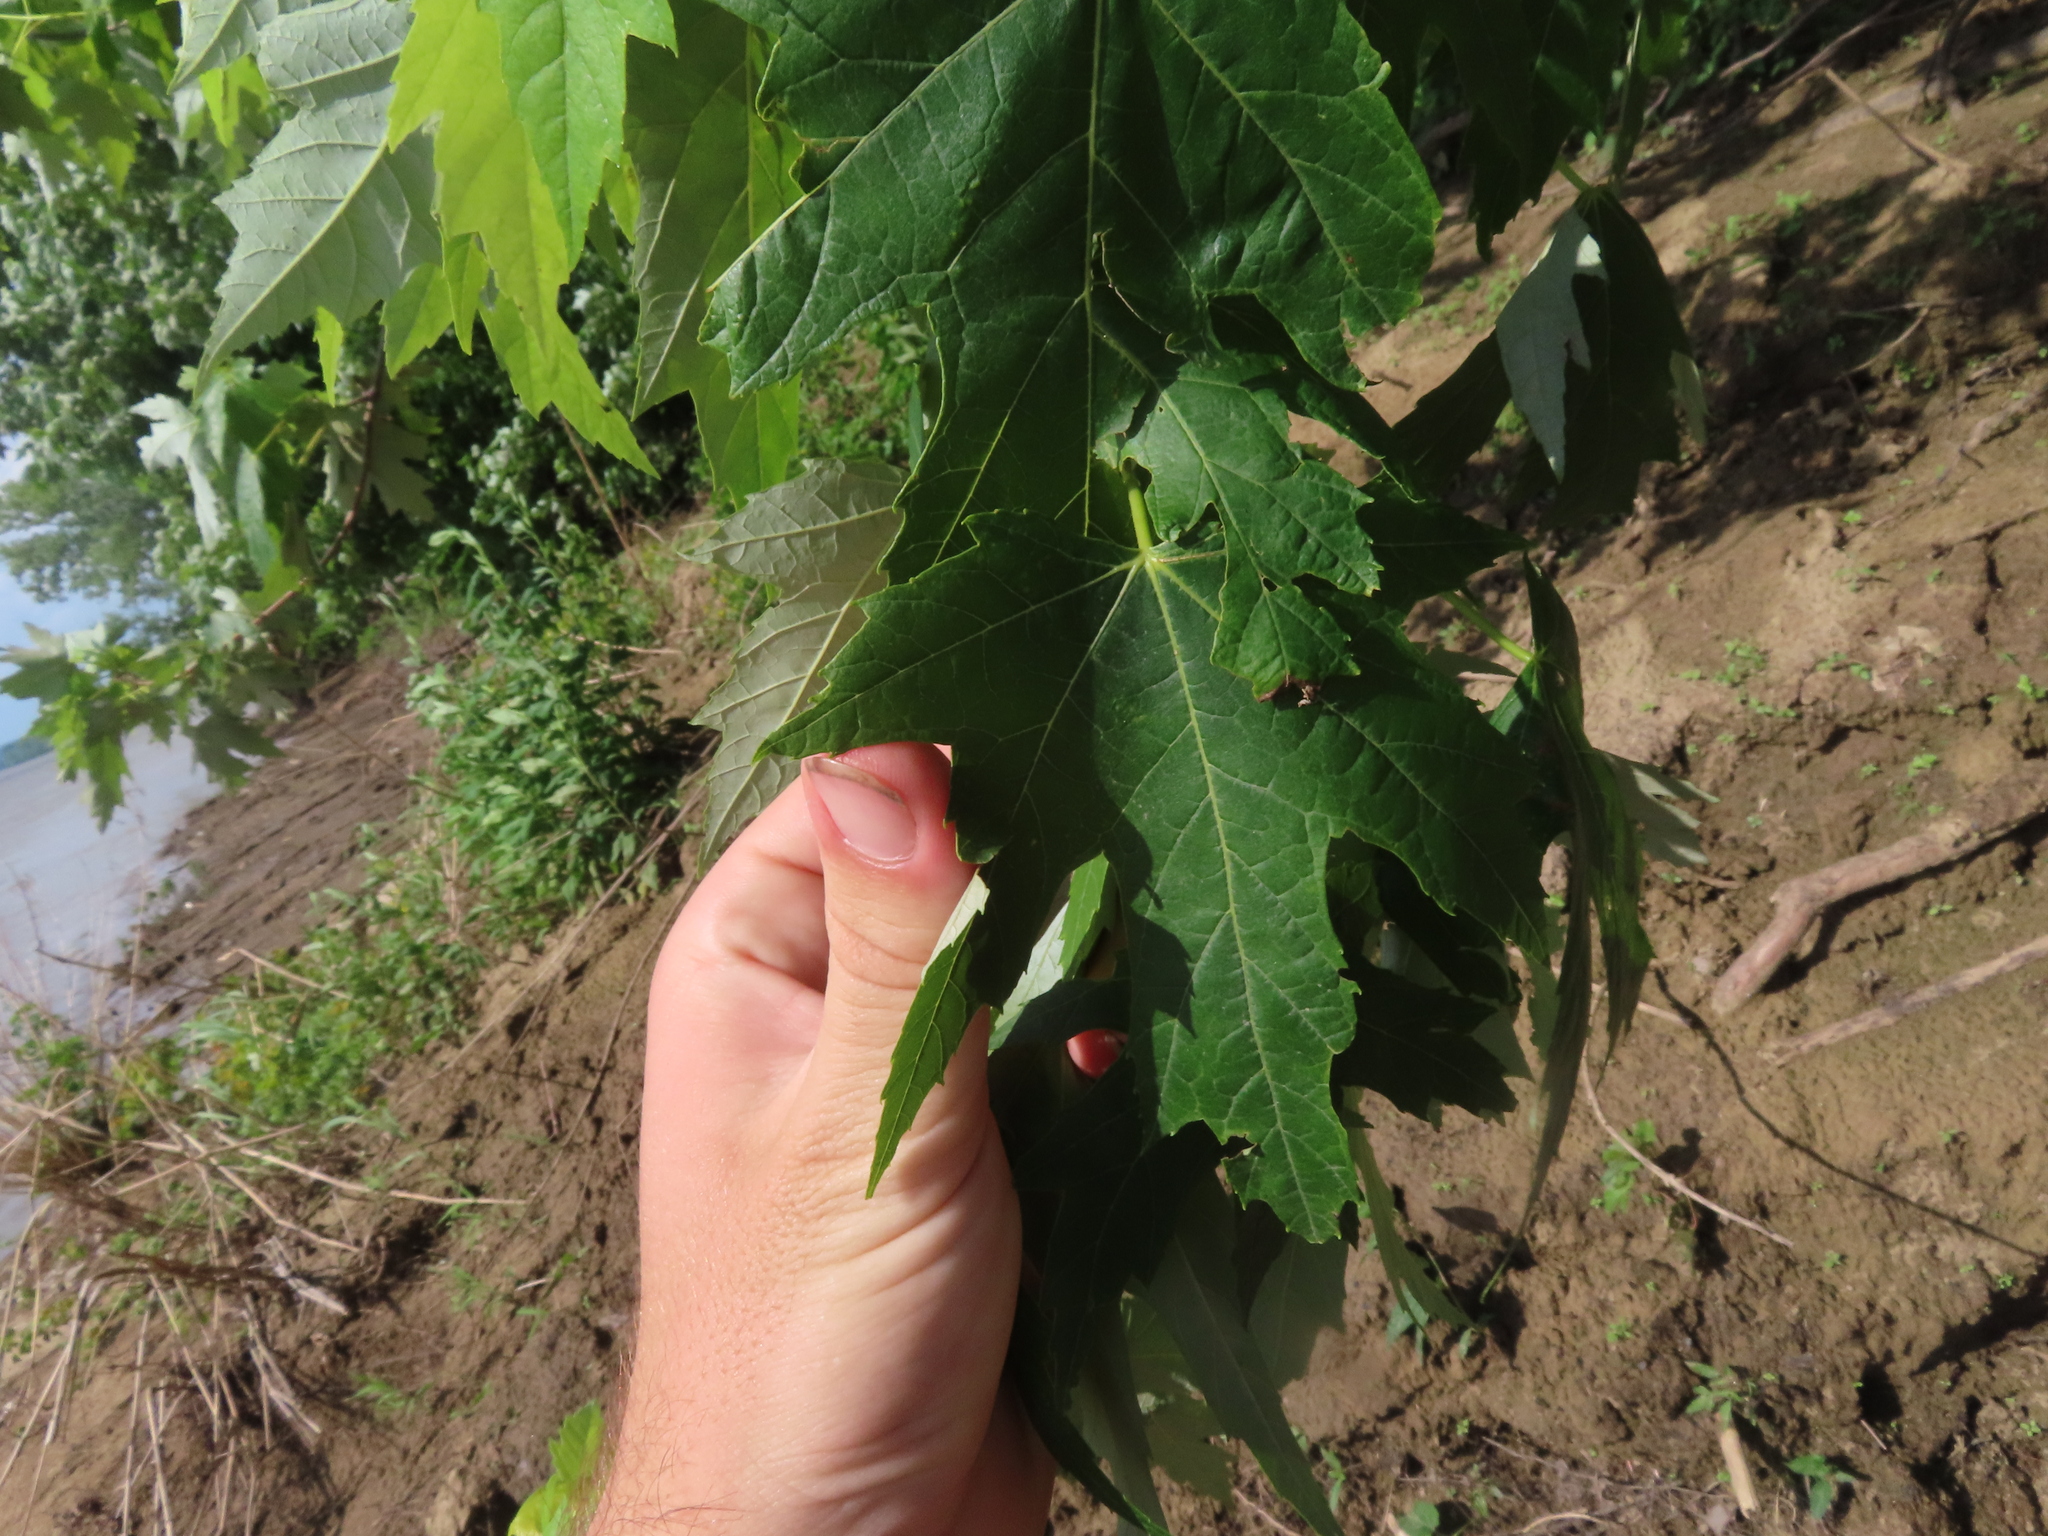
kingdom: Plantae
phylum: Tracheophyta
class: Magnoliopsida
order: Sapindales
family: Sapindaceae
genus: Acer
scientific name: Acer saccharinum
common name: Silver maple
